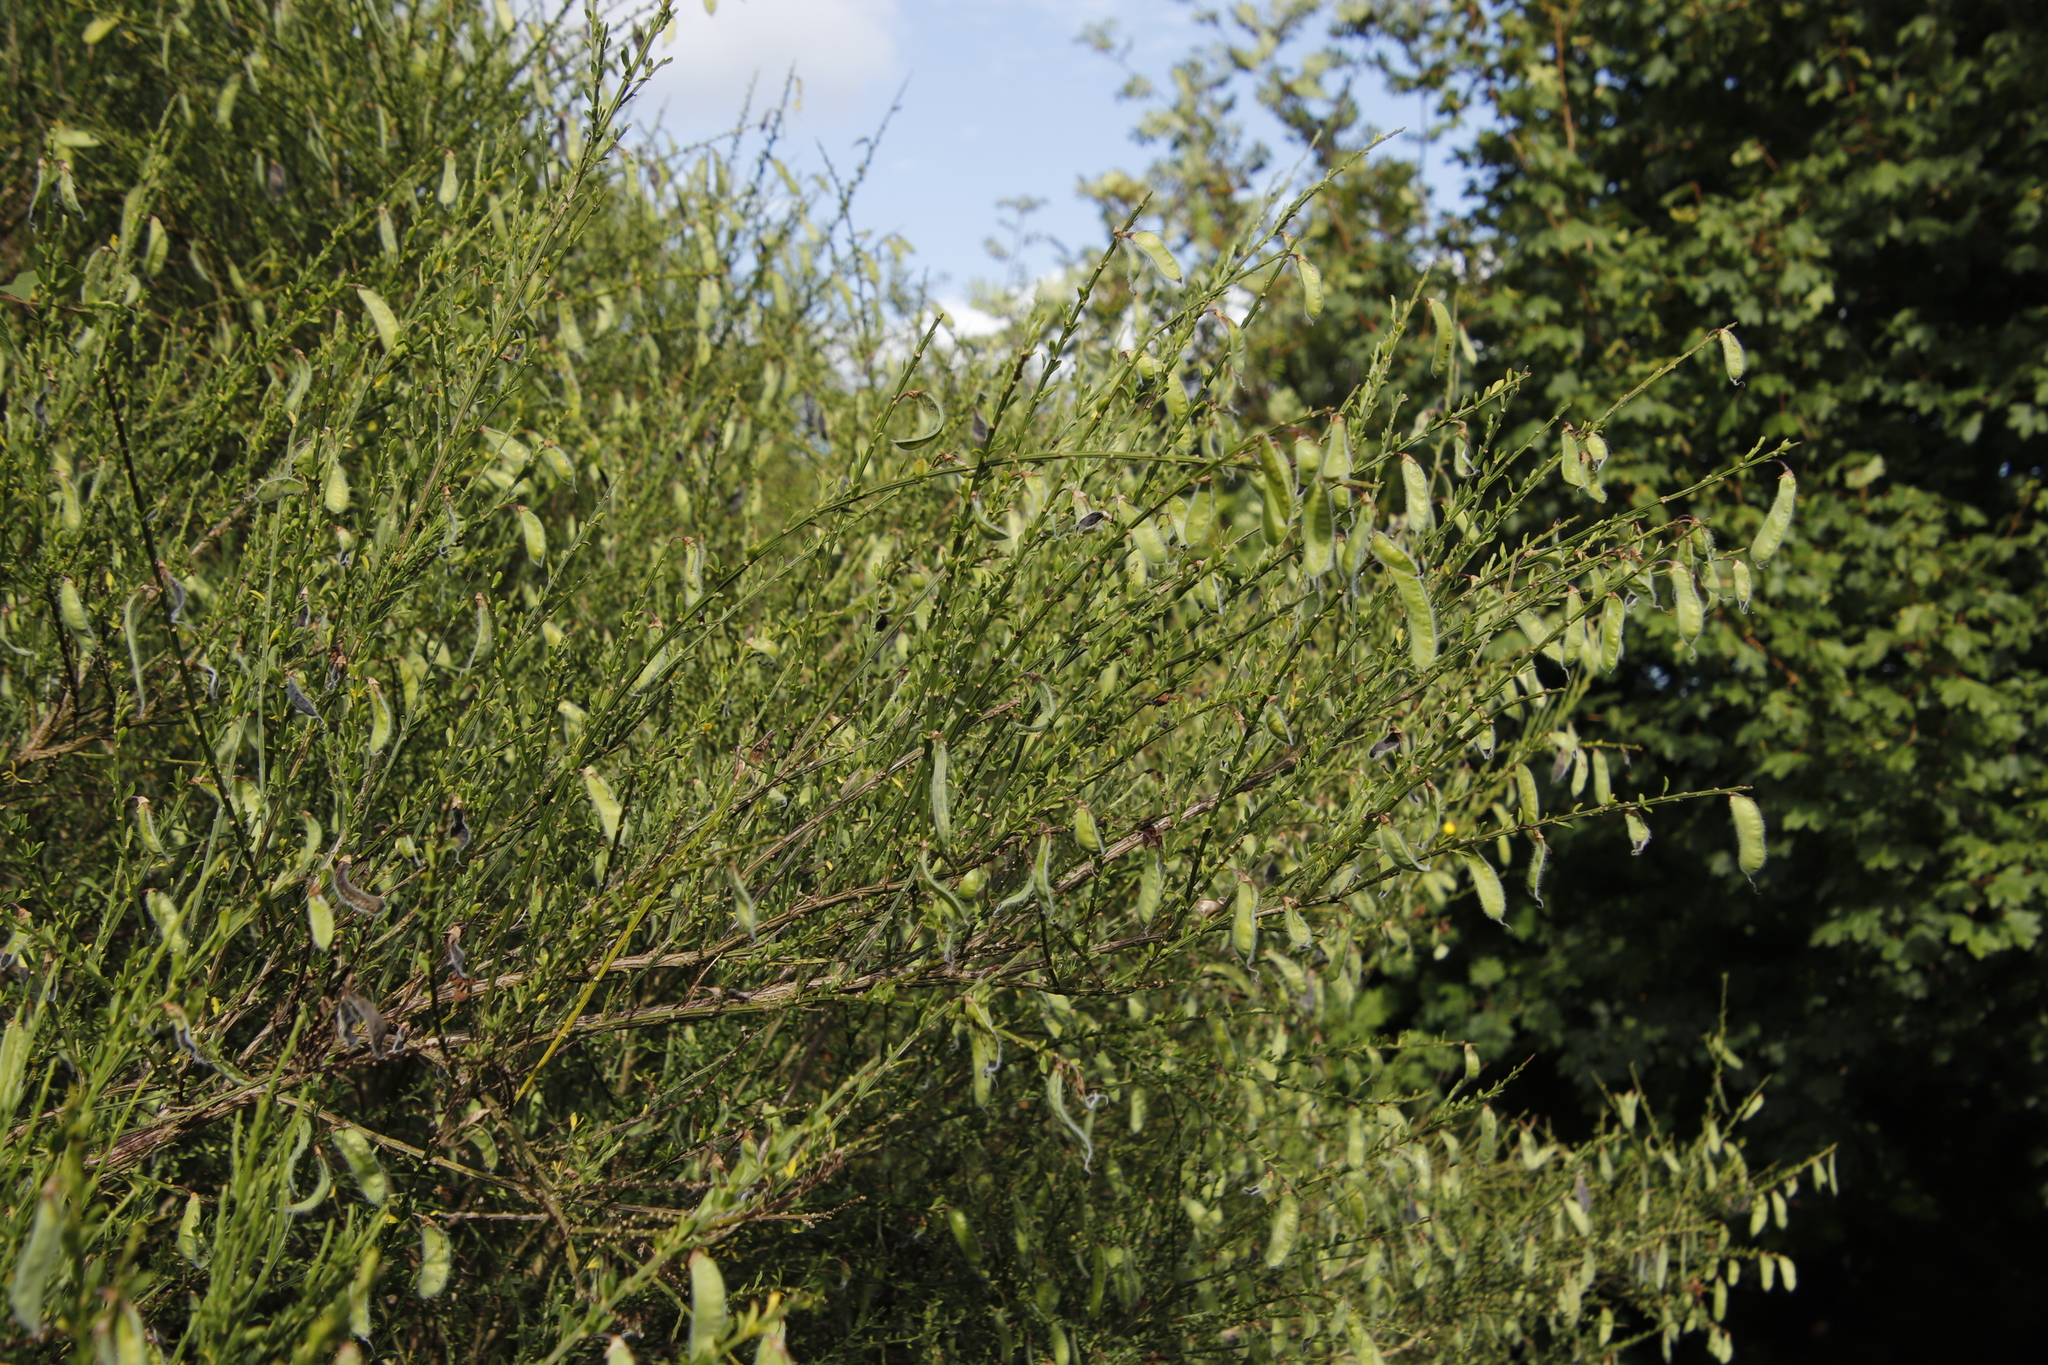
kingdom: Plantae
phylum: Tracheophyta
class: Magnoliopsida
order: Fabales
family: Fabaceae
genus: Cytisus
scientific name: Cytisus scoparius
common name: Scotch broom
